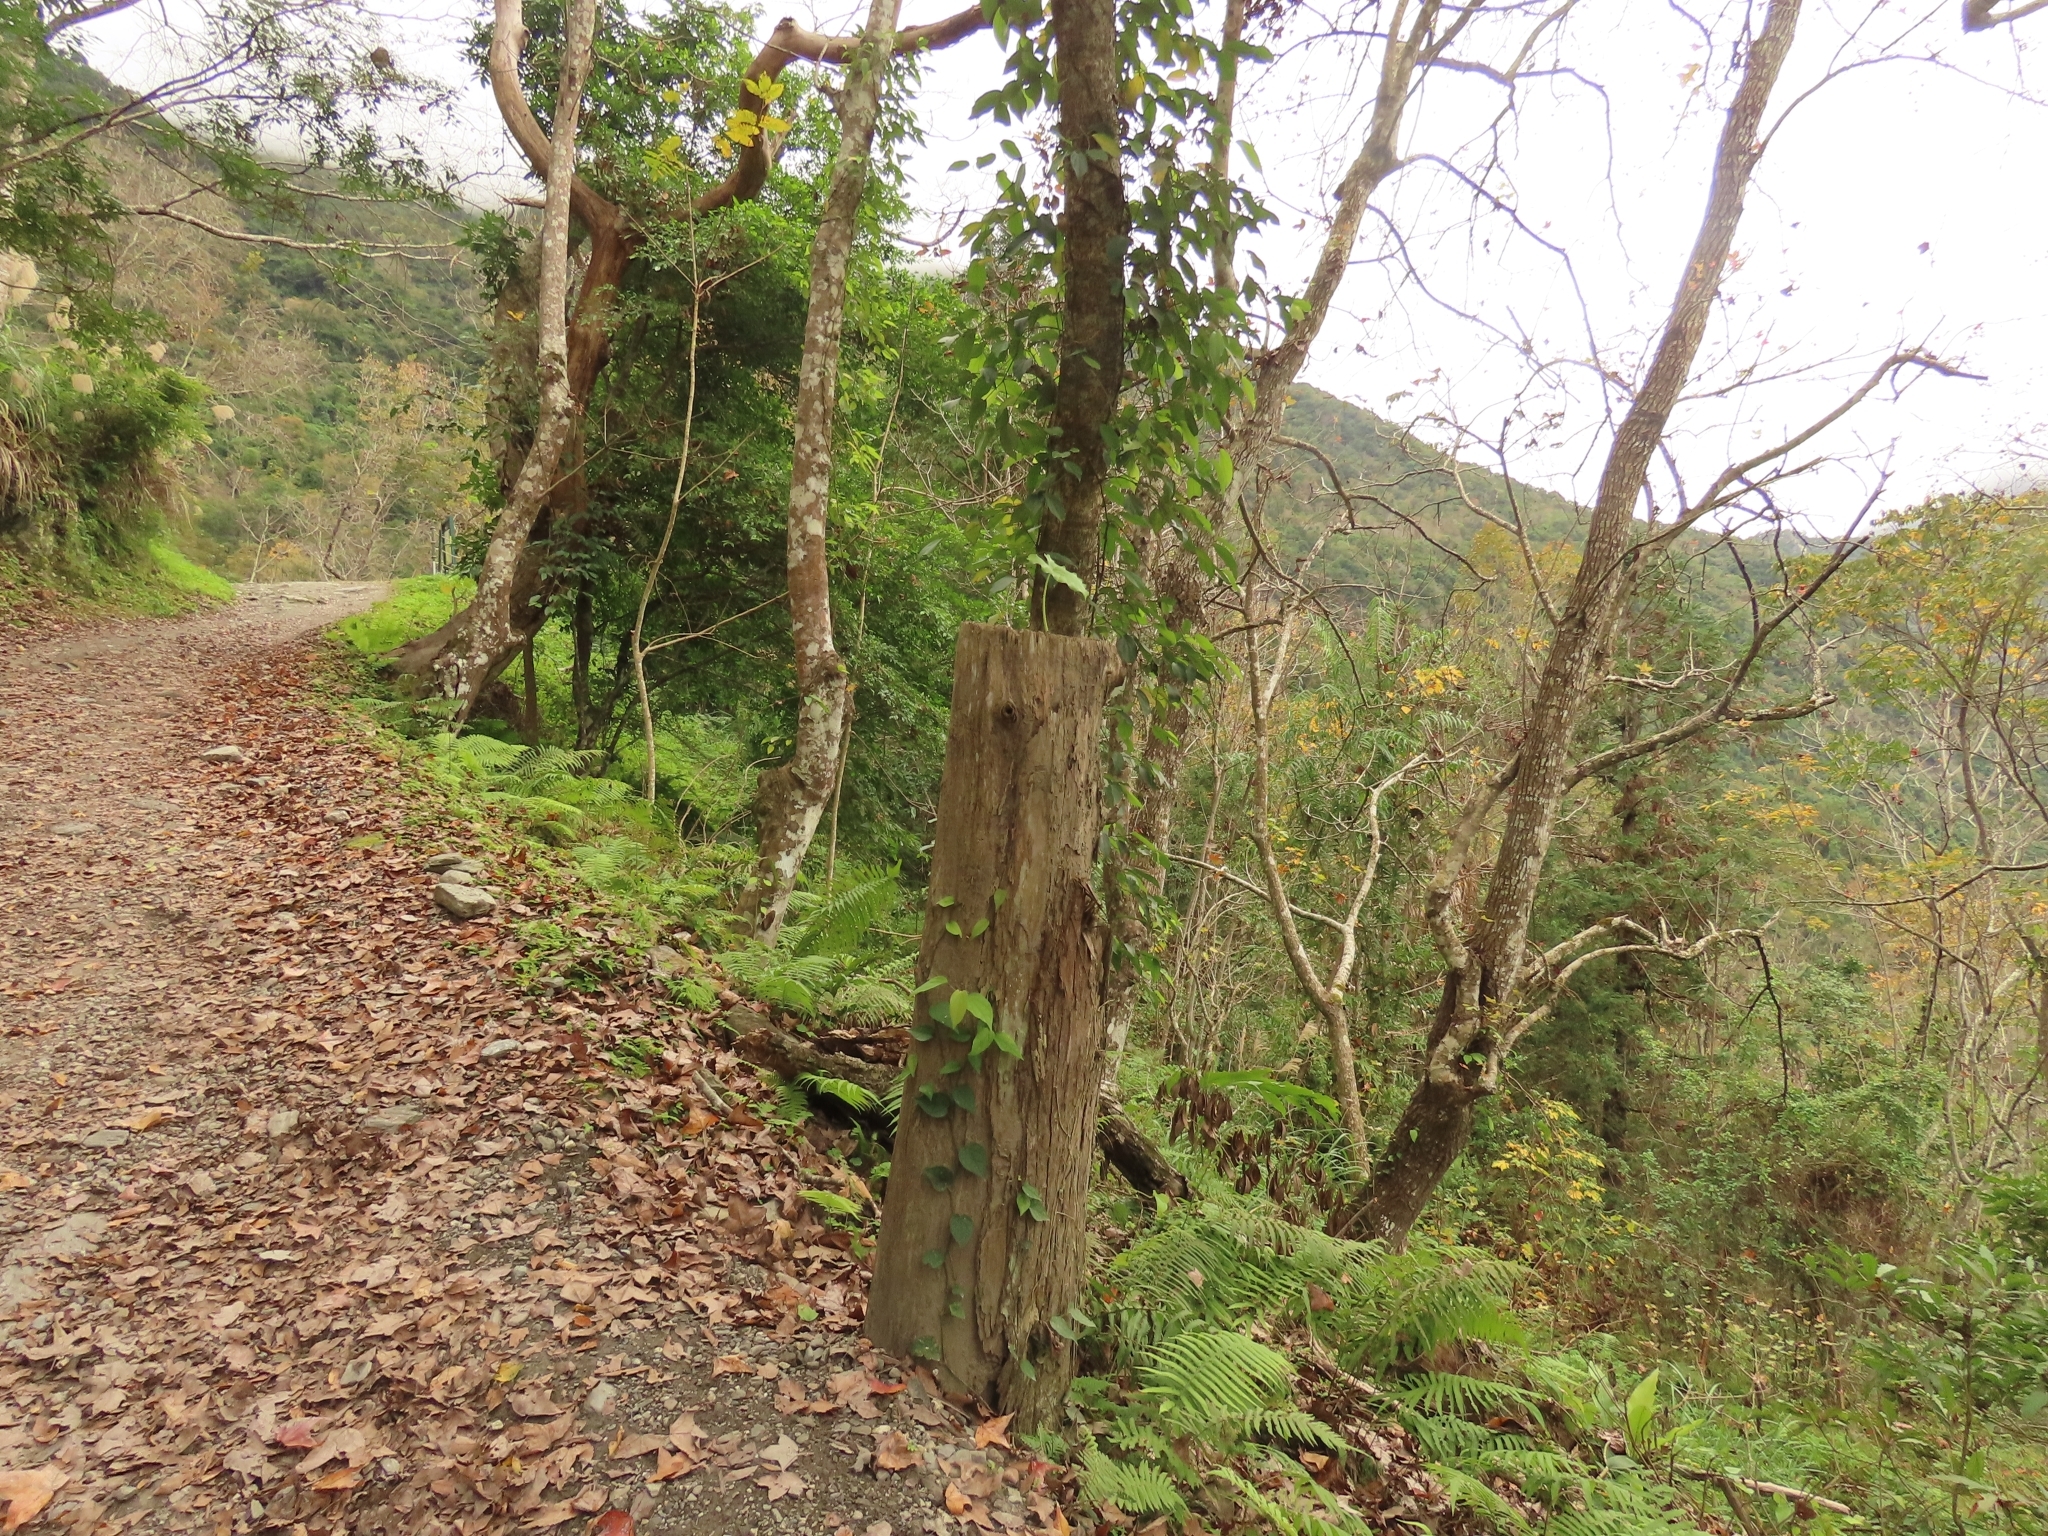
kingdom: Plantae
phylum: Tracheophyta
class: Liliopsida
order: Alismatales
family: Araceae
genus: Alocasia
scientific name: Alocasia odora
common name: Asian taro
